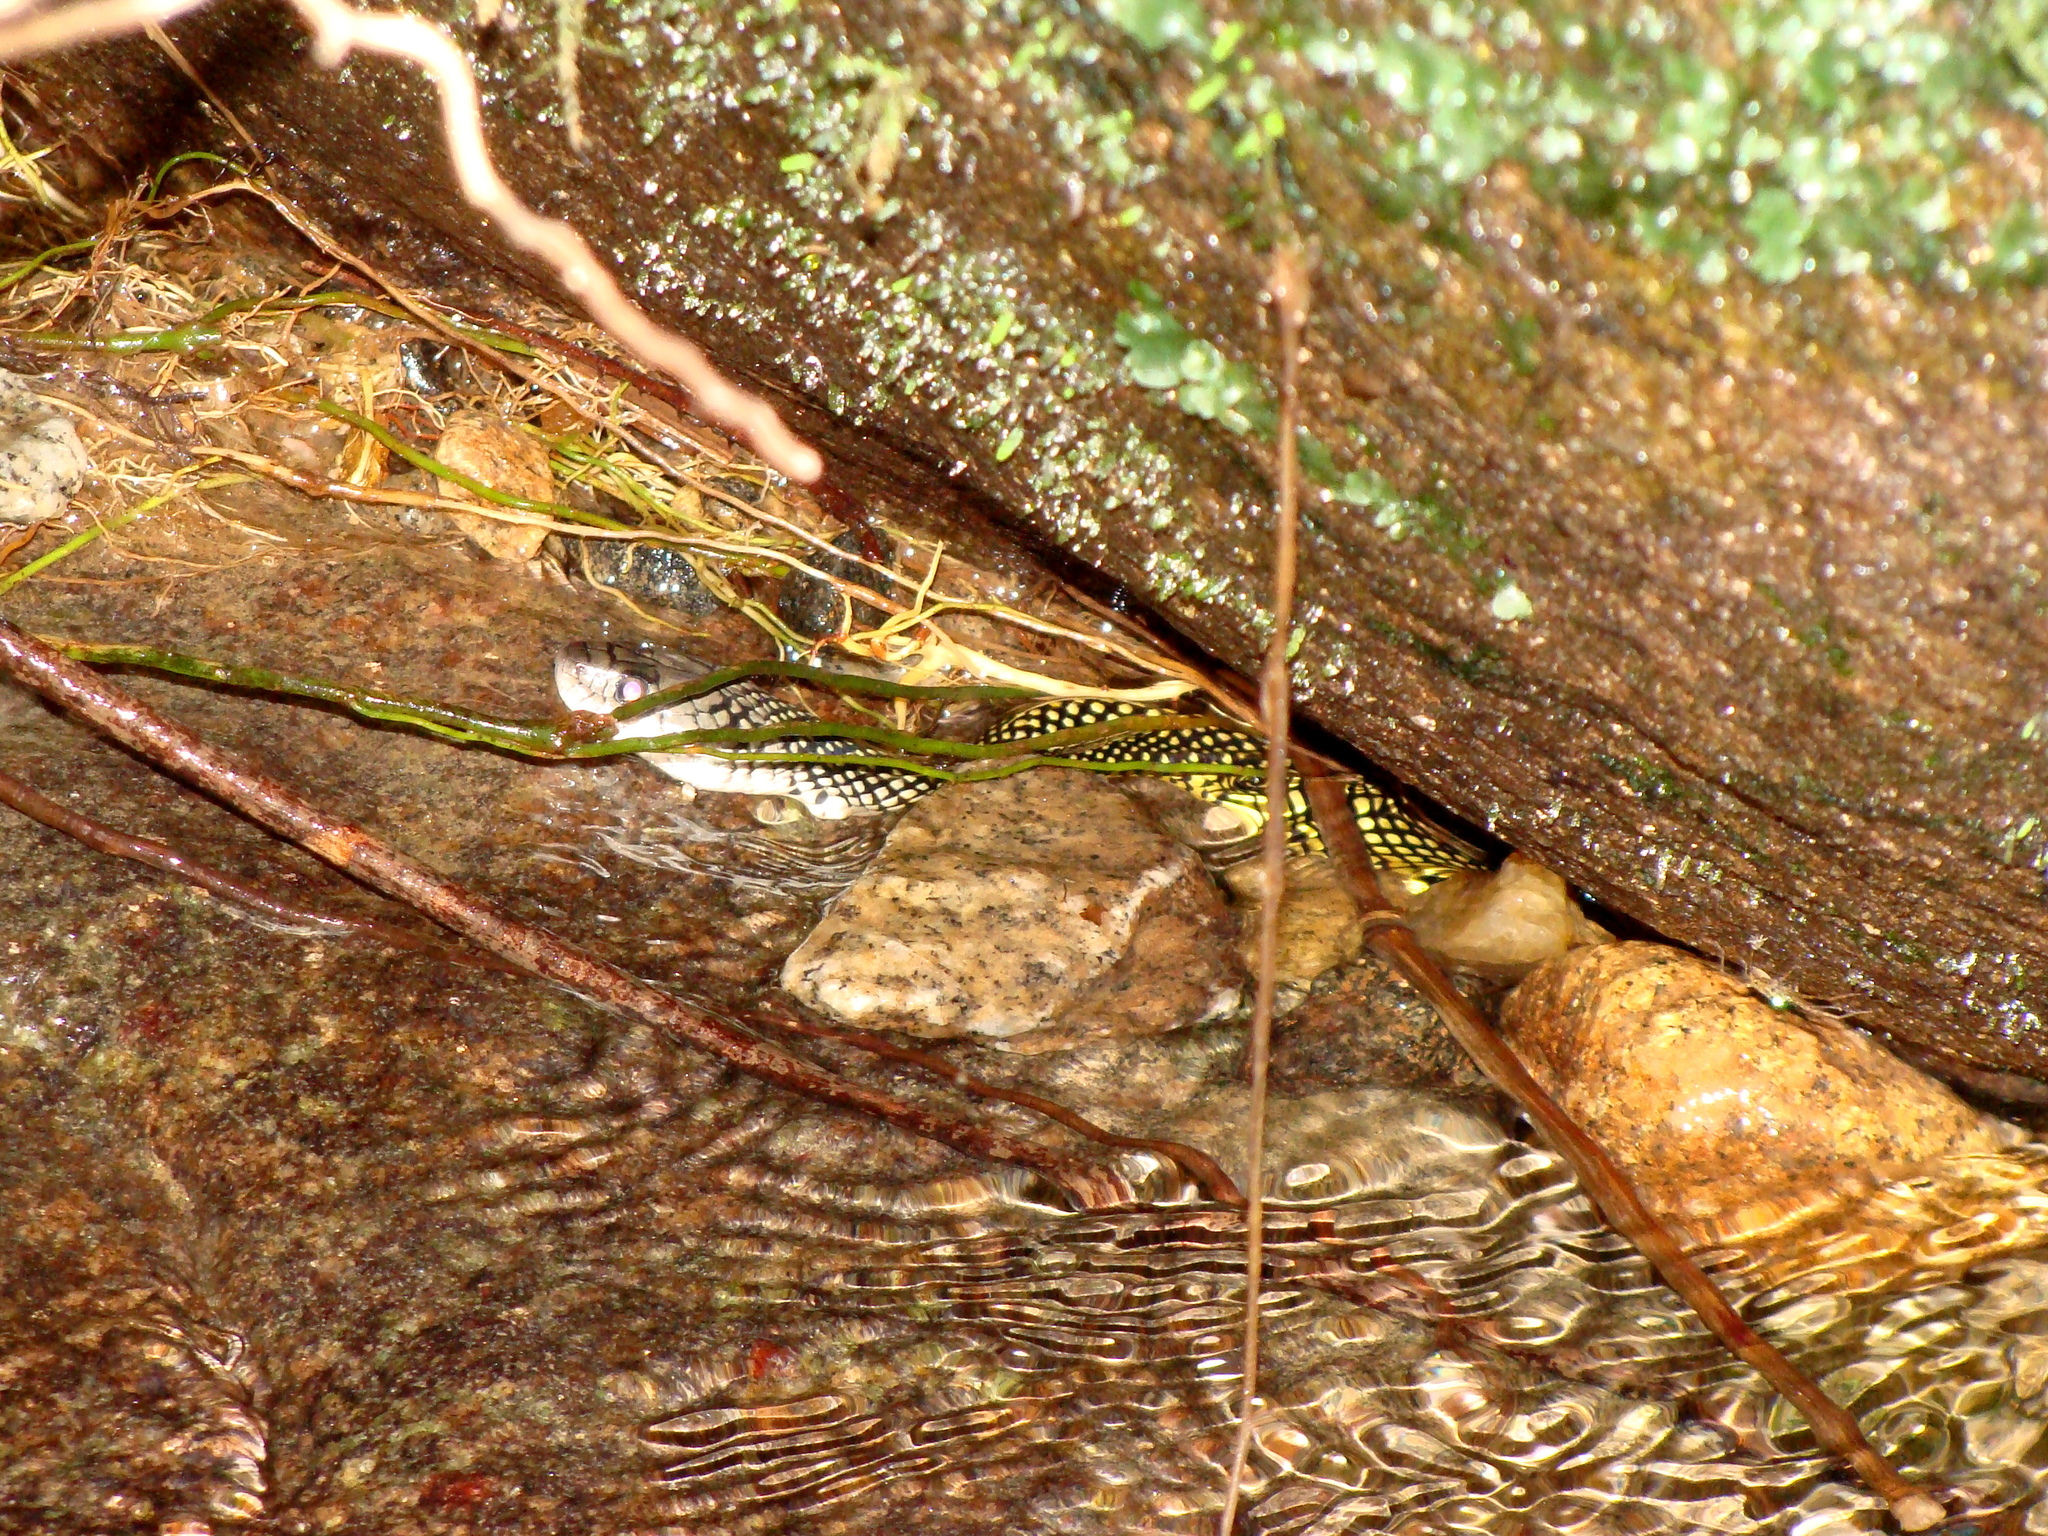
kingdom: Animalia
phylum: Chordata
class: Squamata
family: Colubridae
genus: Erythrolamprus
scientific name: Erythrolamprus miliaris
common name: Military ground snake
